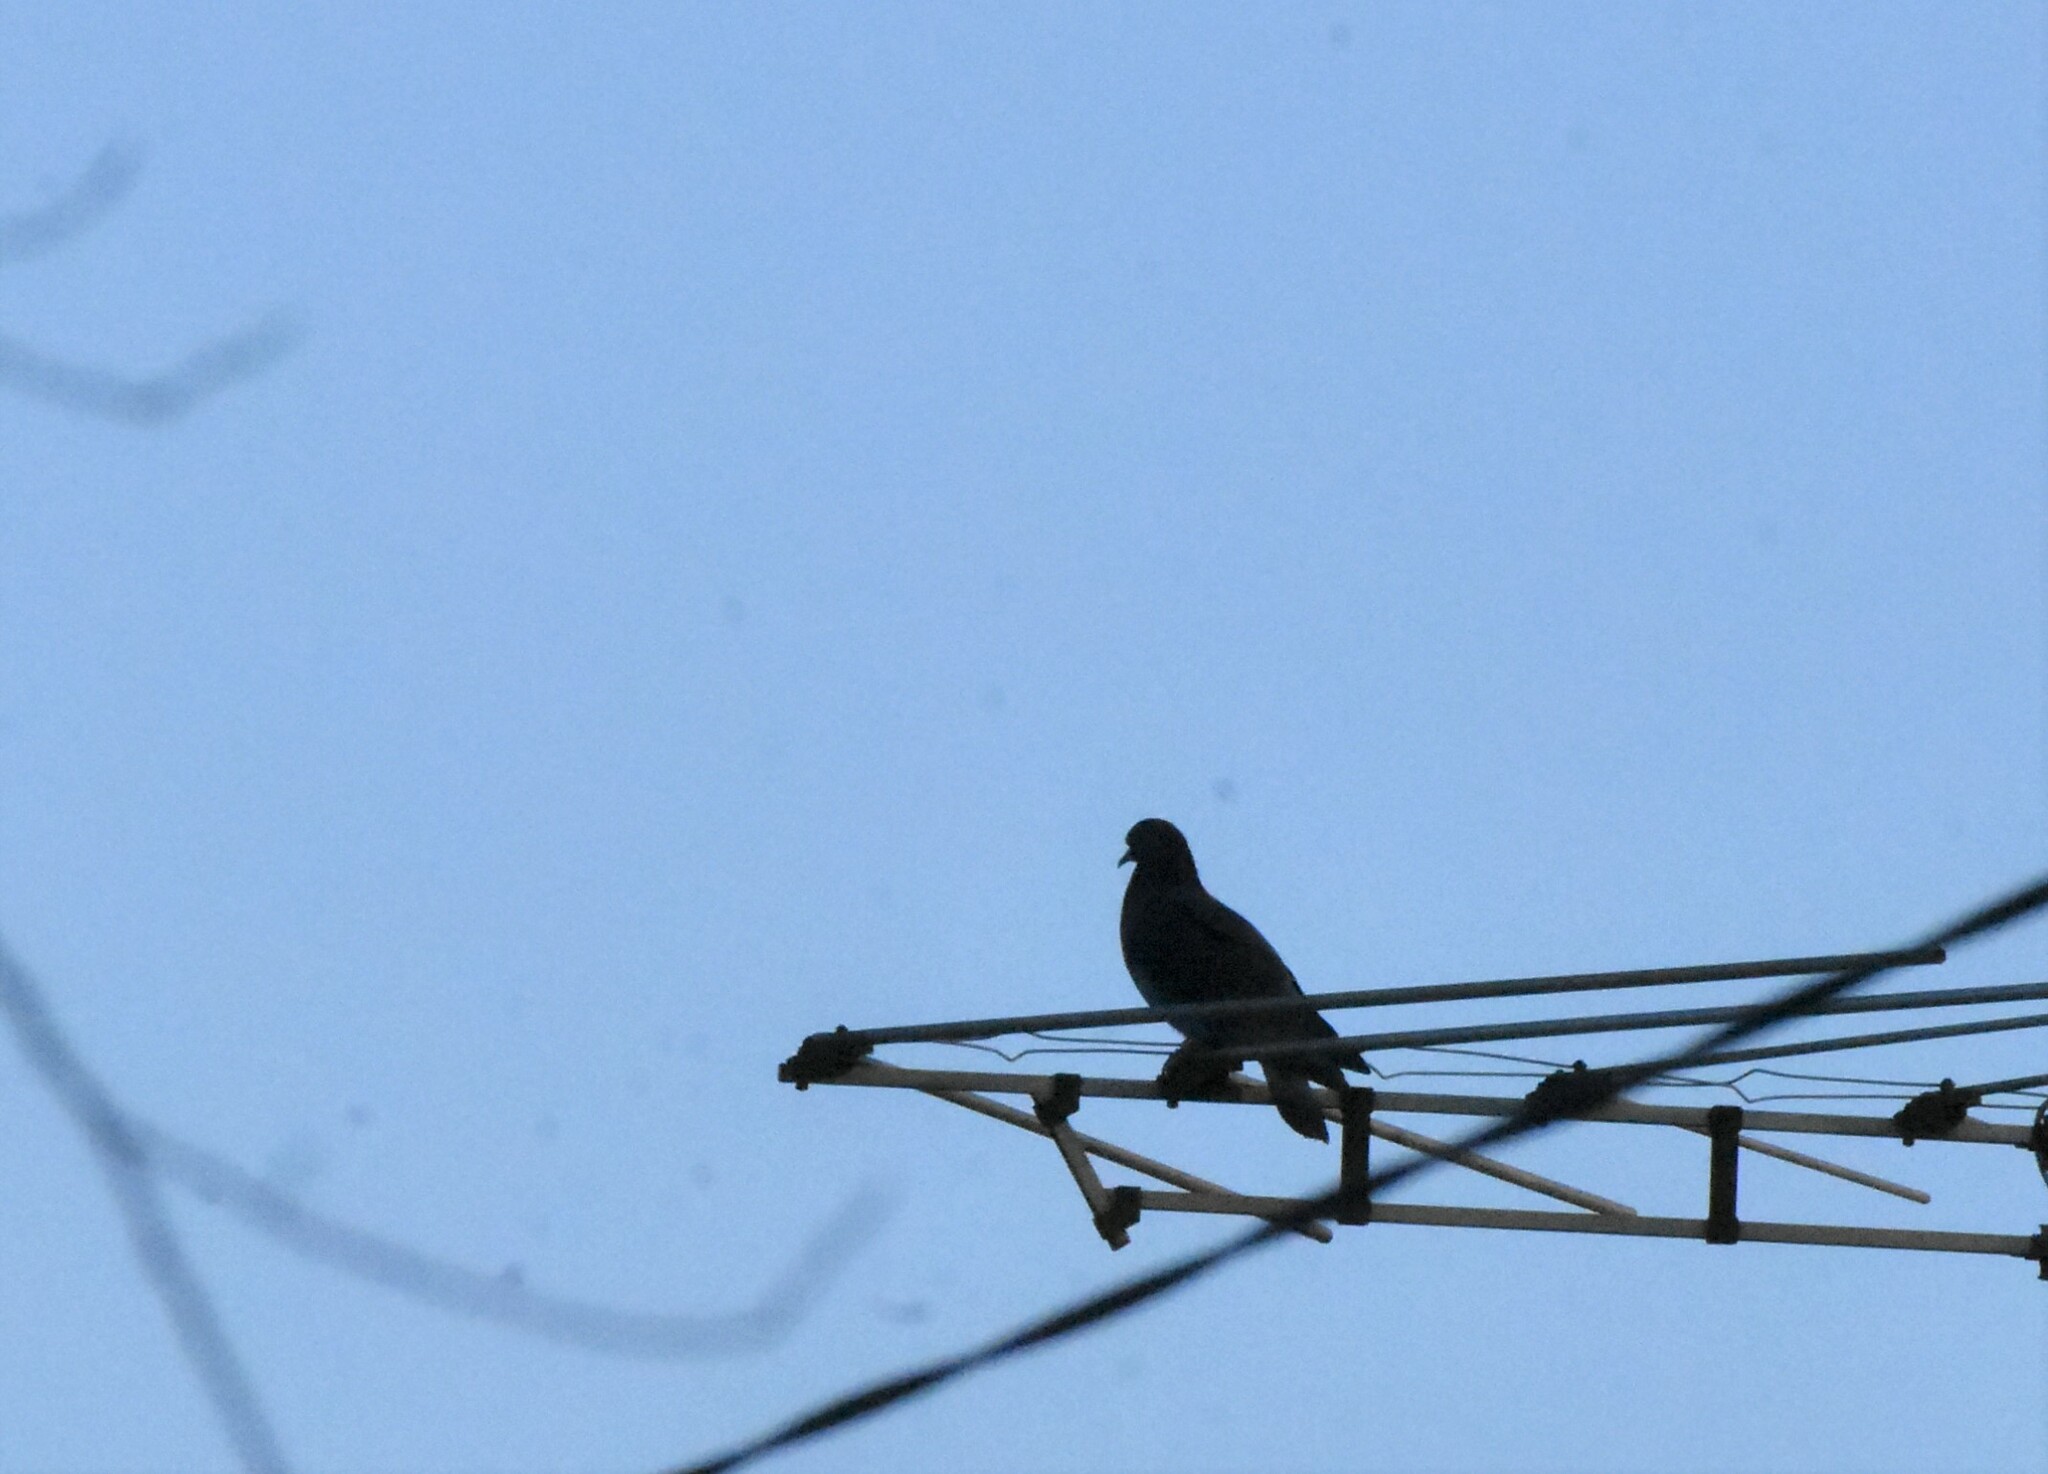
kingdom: Animalia
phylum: Chordata
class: Aves
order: Columbiformes
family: Columbidae
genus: Columba
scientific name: Columba livia
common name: Rock pigeon
